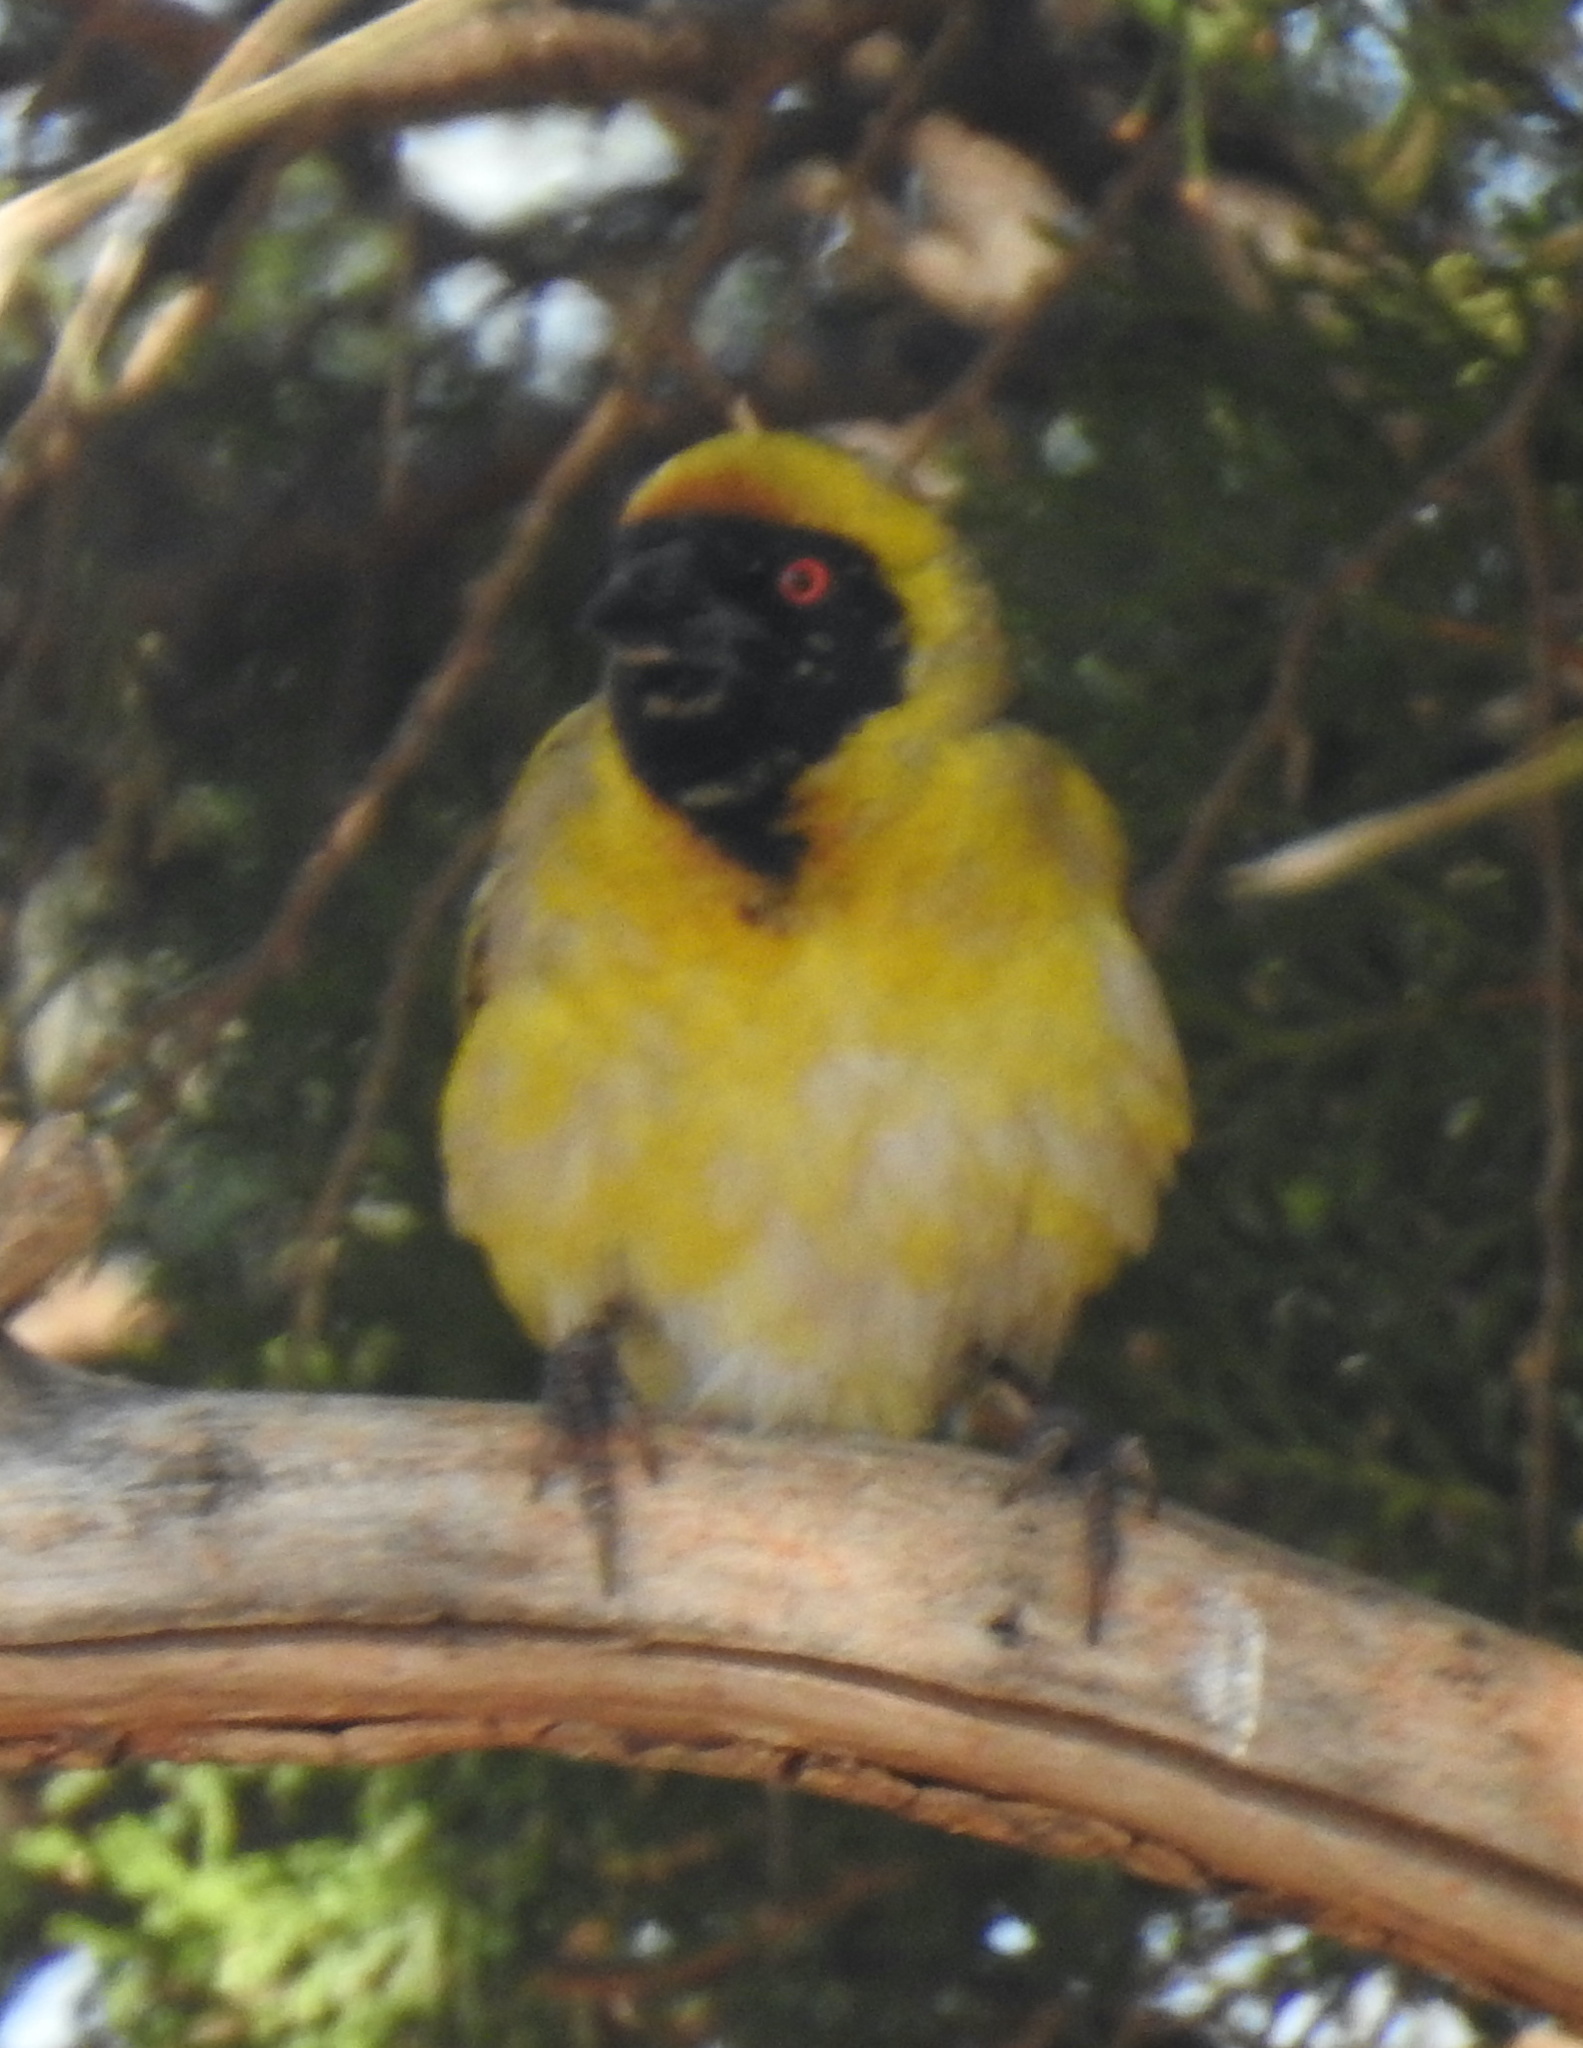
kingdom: Animalia
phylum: Chordata
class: Aves
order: Passeriformes
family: Ploceidae
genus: Ploceus
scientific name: Ploceus velatus
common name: Southern masked weaver
